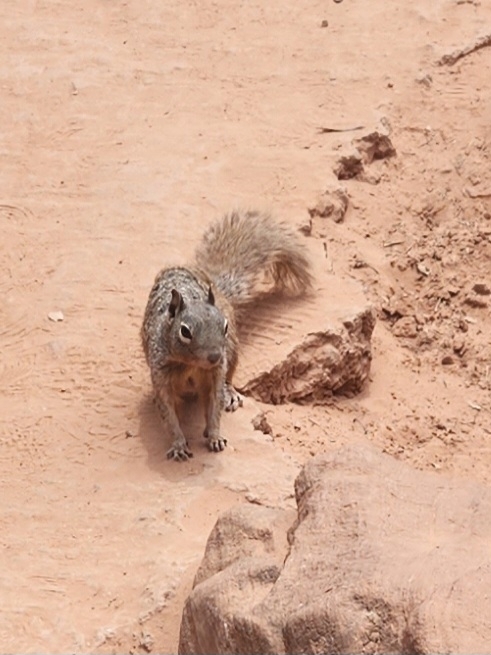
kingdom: Animalia
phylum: Chordata
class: Mammalia
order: Rodentia
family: Sciuridae
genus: Otospermophilus
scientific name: Otospermophilus variegatus
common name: Rock squirrel
